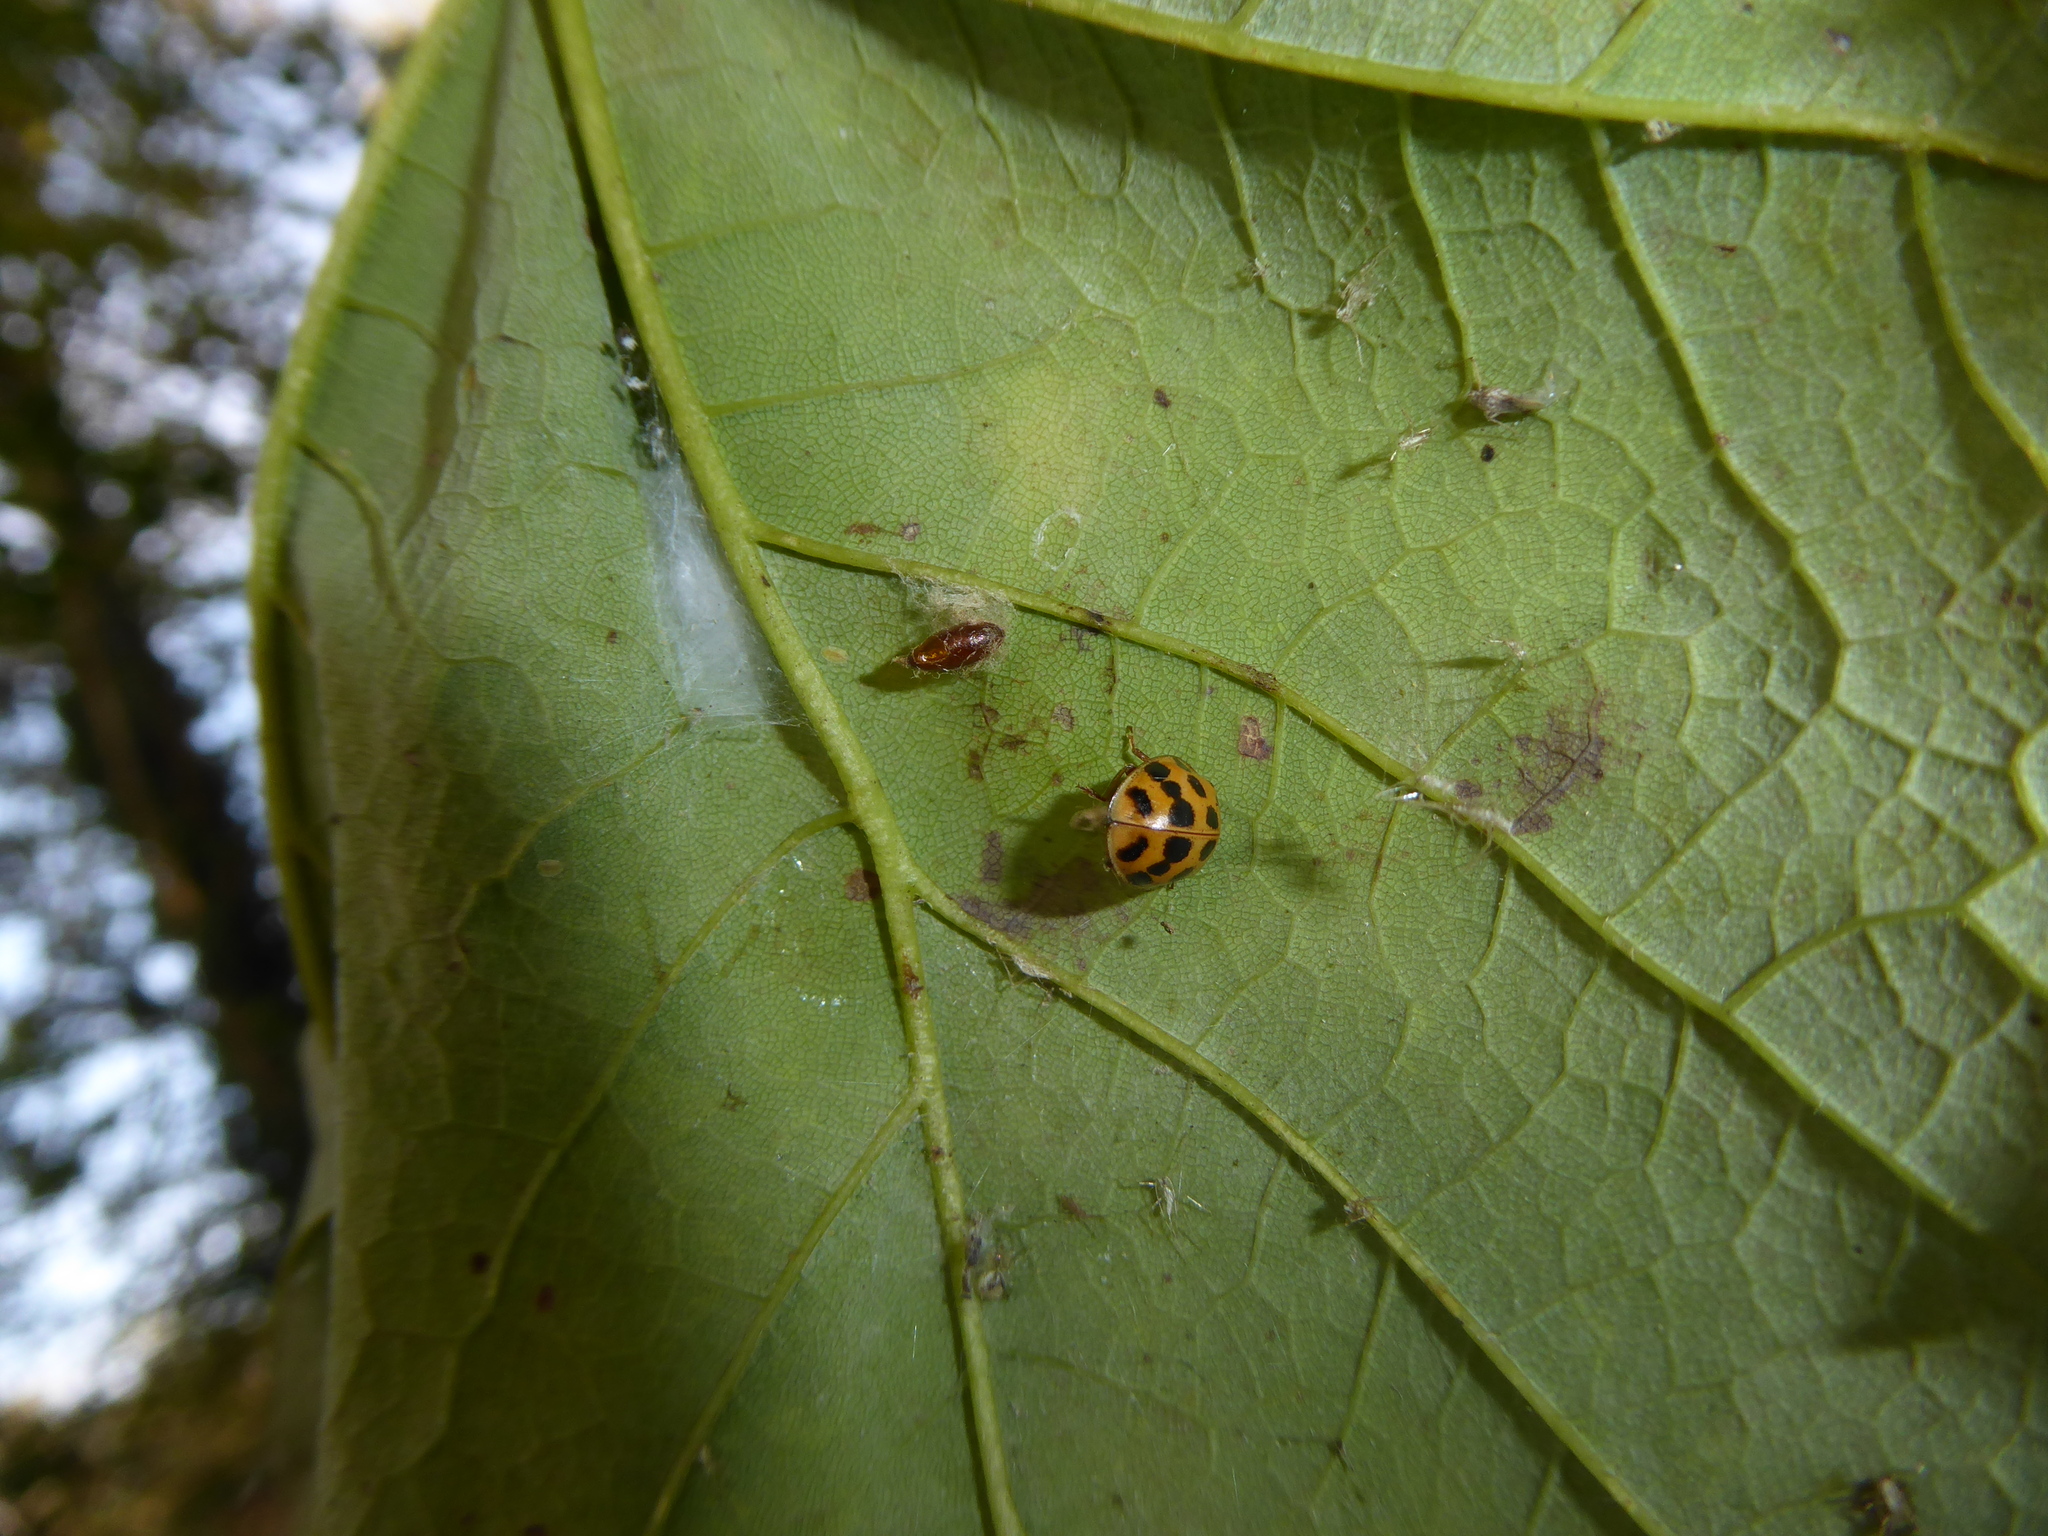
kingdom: Animalia
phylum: Arthropoda
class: Insecta
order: Coleoptera
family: Coccinellidae
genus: Harmonia
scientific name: Harmonia axyridis
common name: Harlequin ladybird
